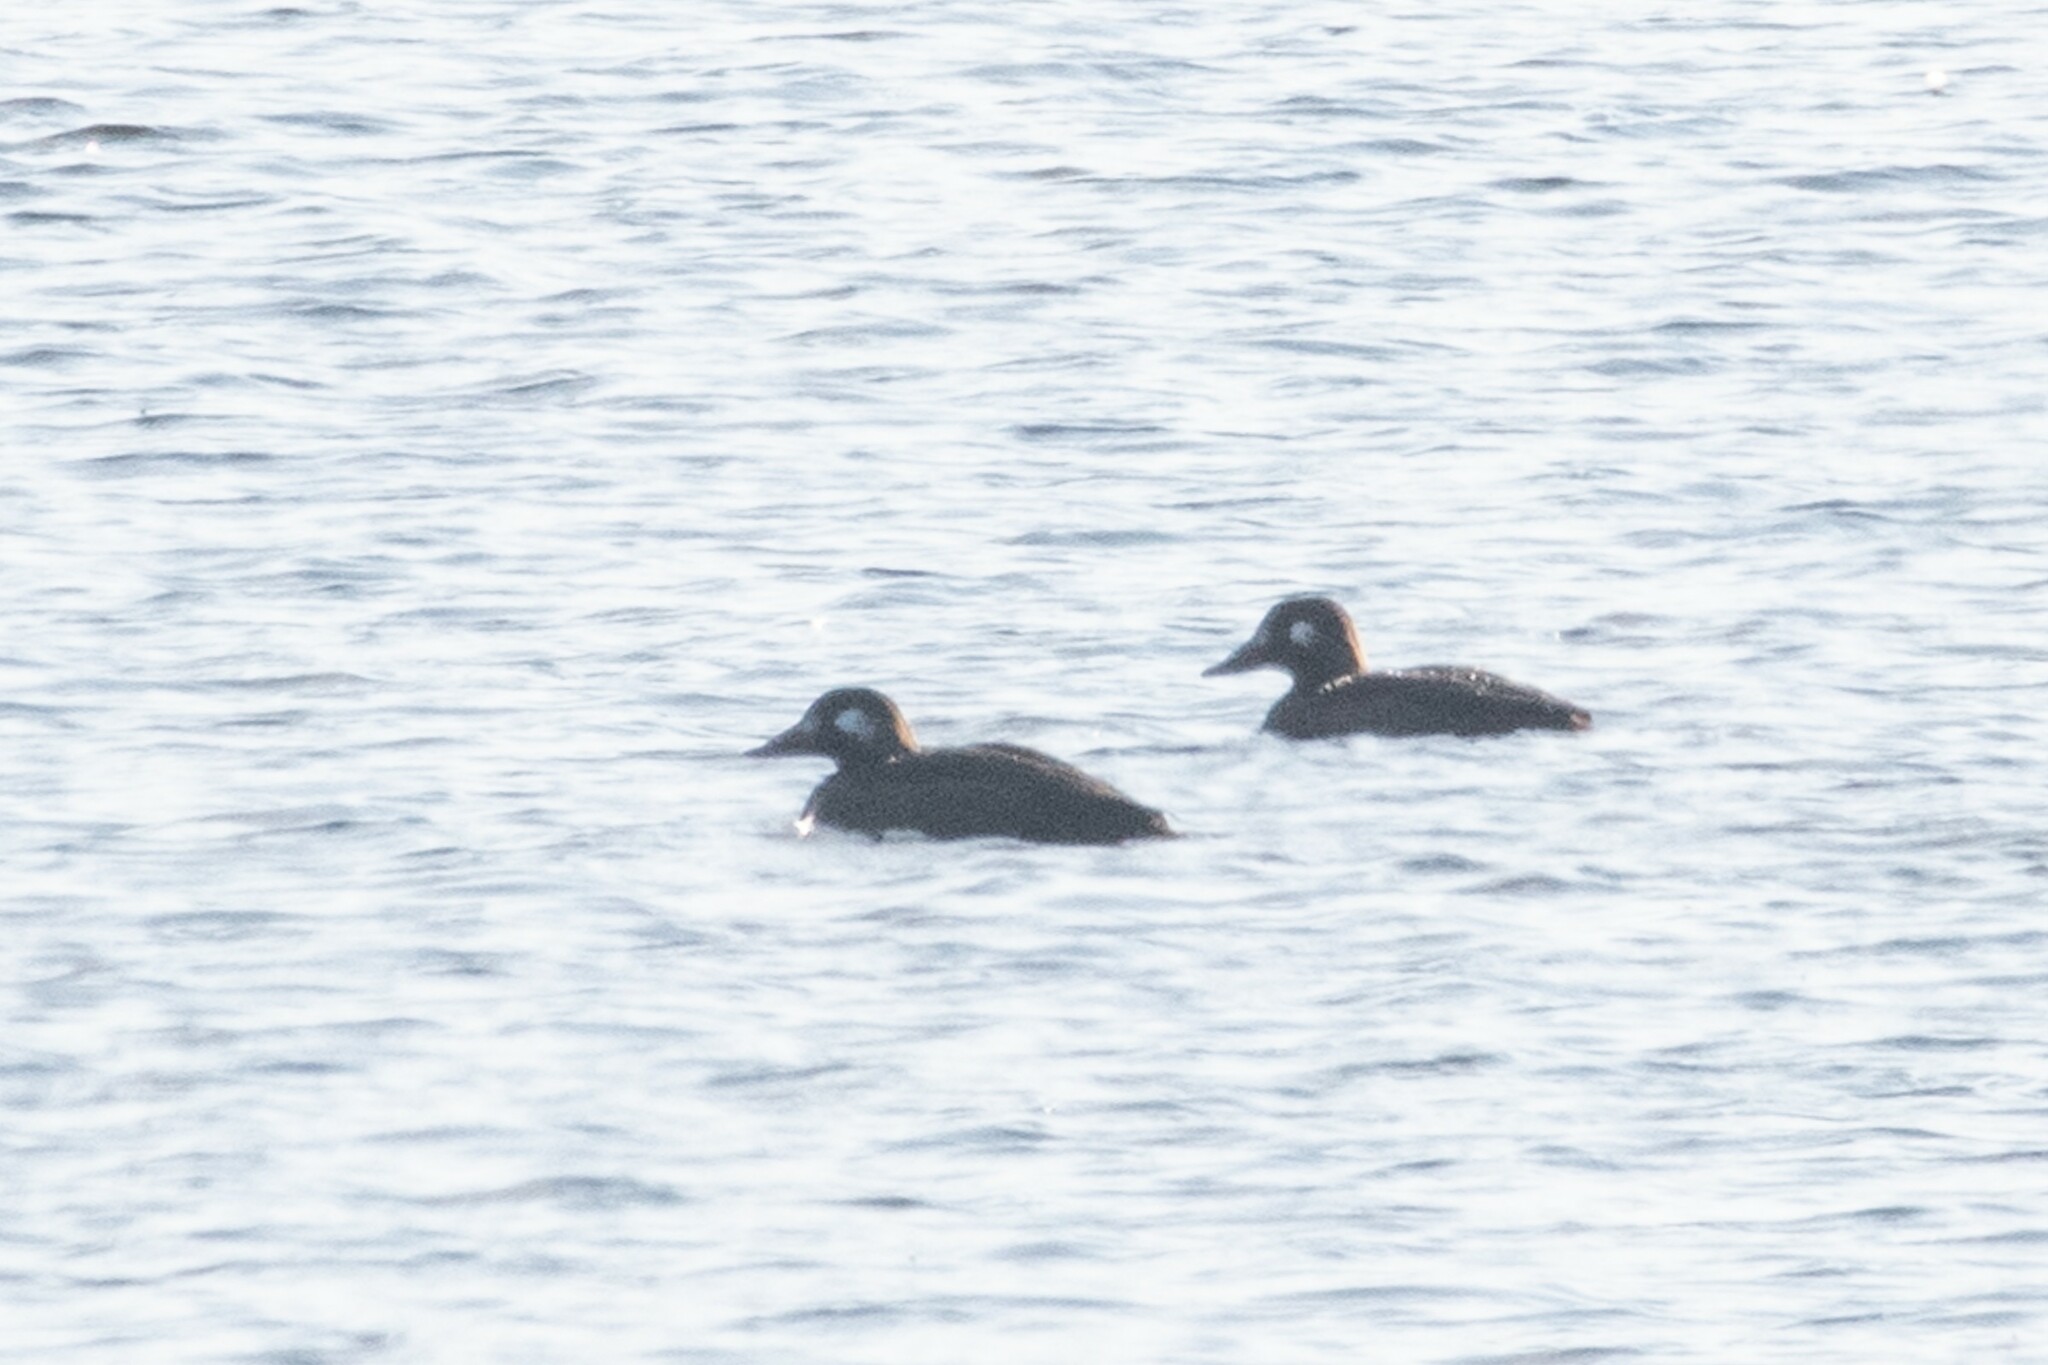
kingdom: Animalia
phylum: Chordata
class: Aves
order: Anseriformes
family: Anatidae
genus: Melanitta
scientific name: Melanitta deglandi
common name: White-winged scoter
